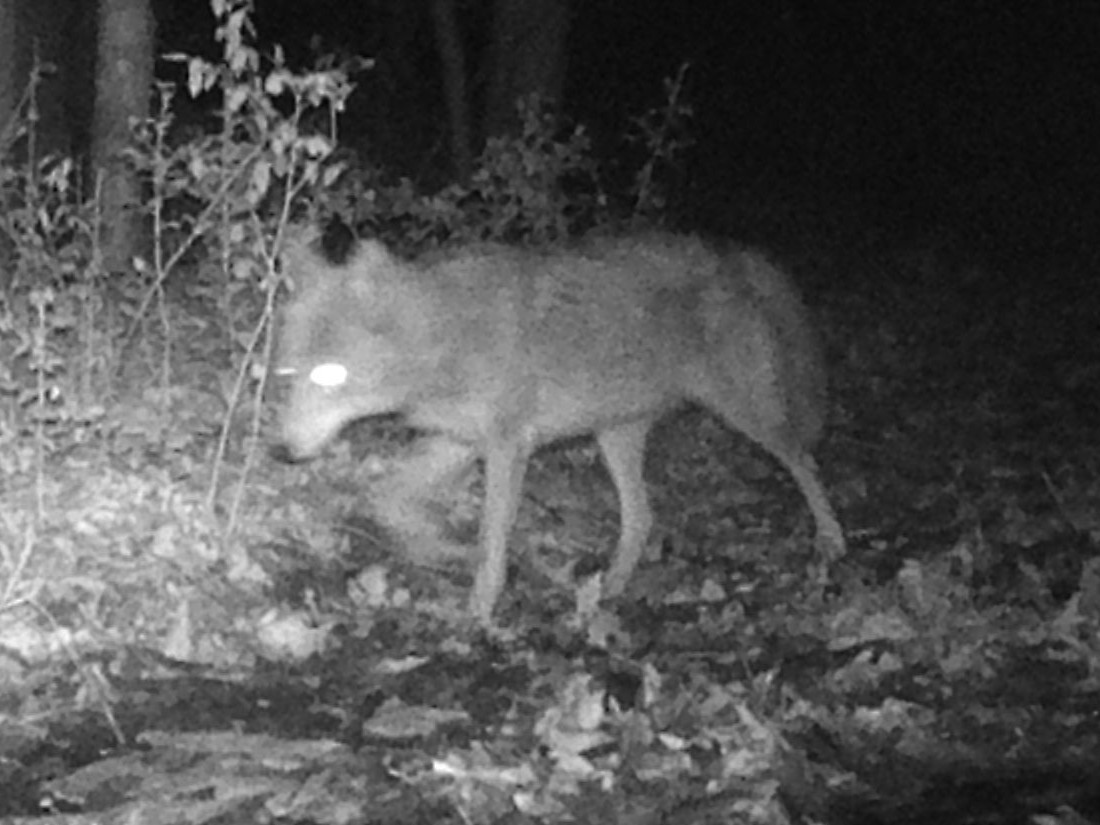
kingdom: Animalia
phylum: Chordata
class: Mammalia
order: Carnivora
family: Canidae
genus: Canis
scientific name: Canis latrans
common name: Coyote
